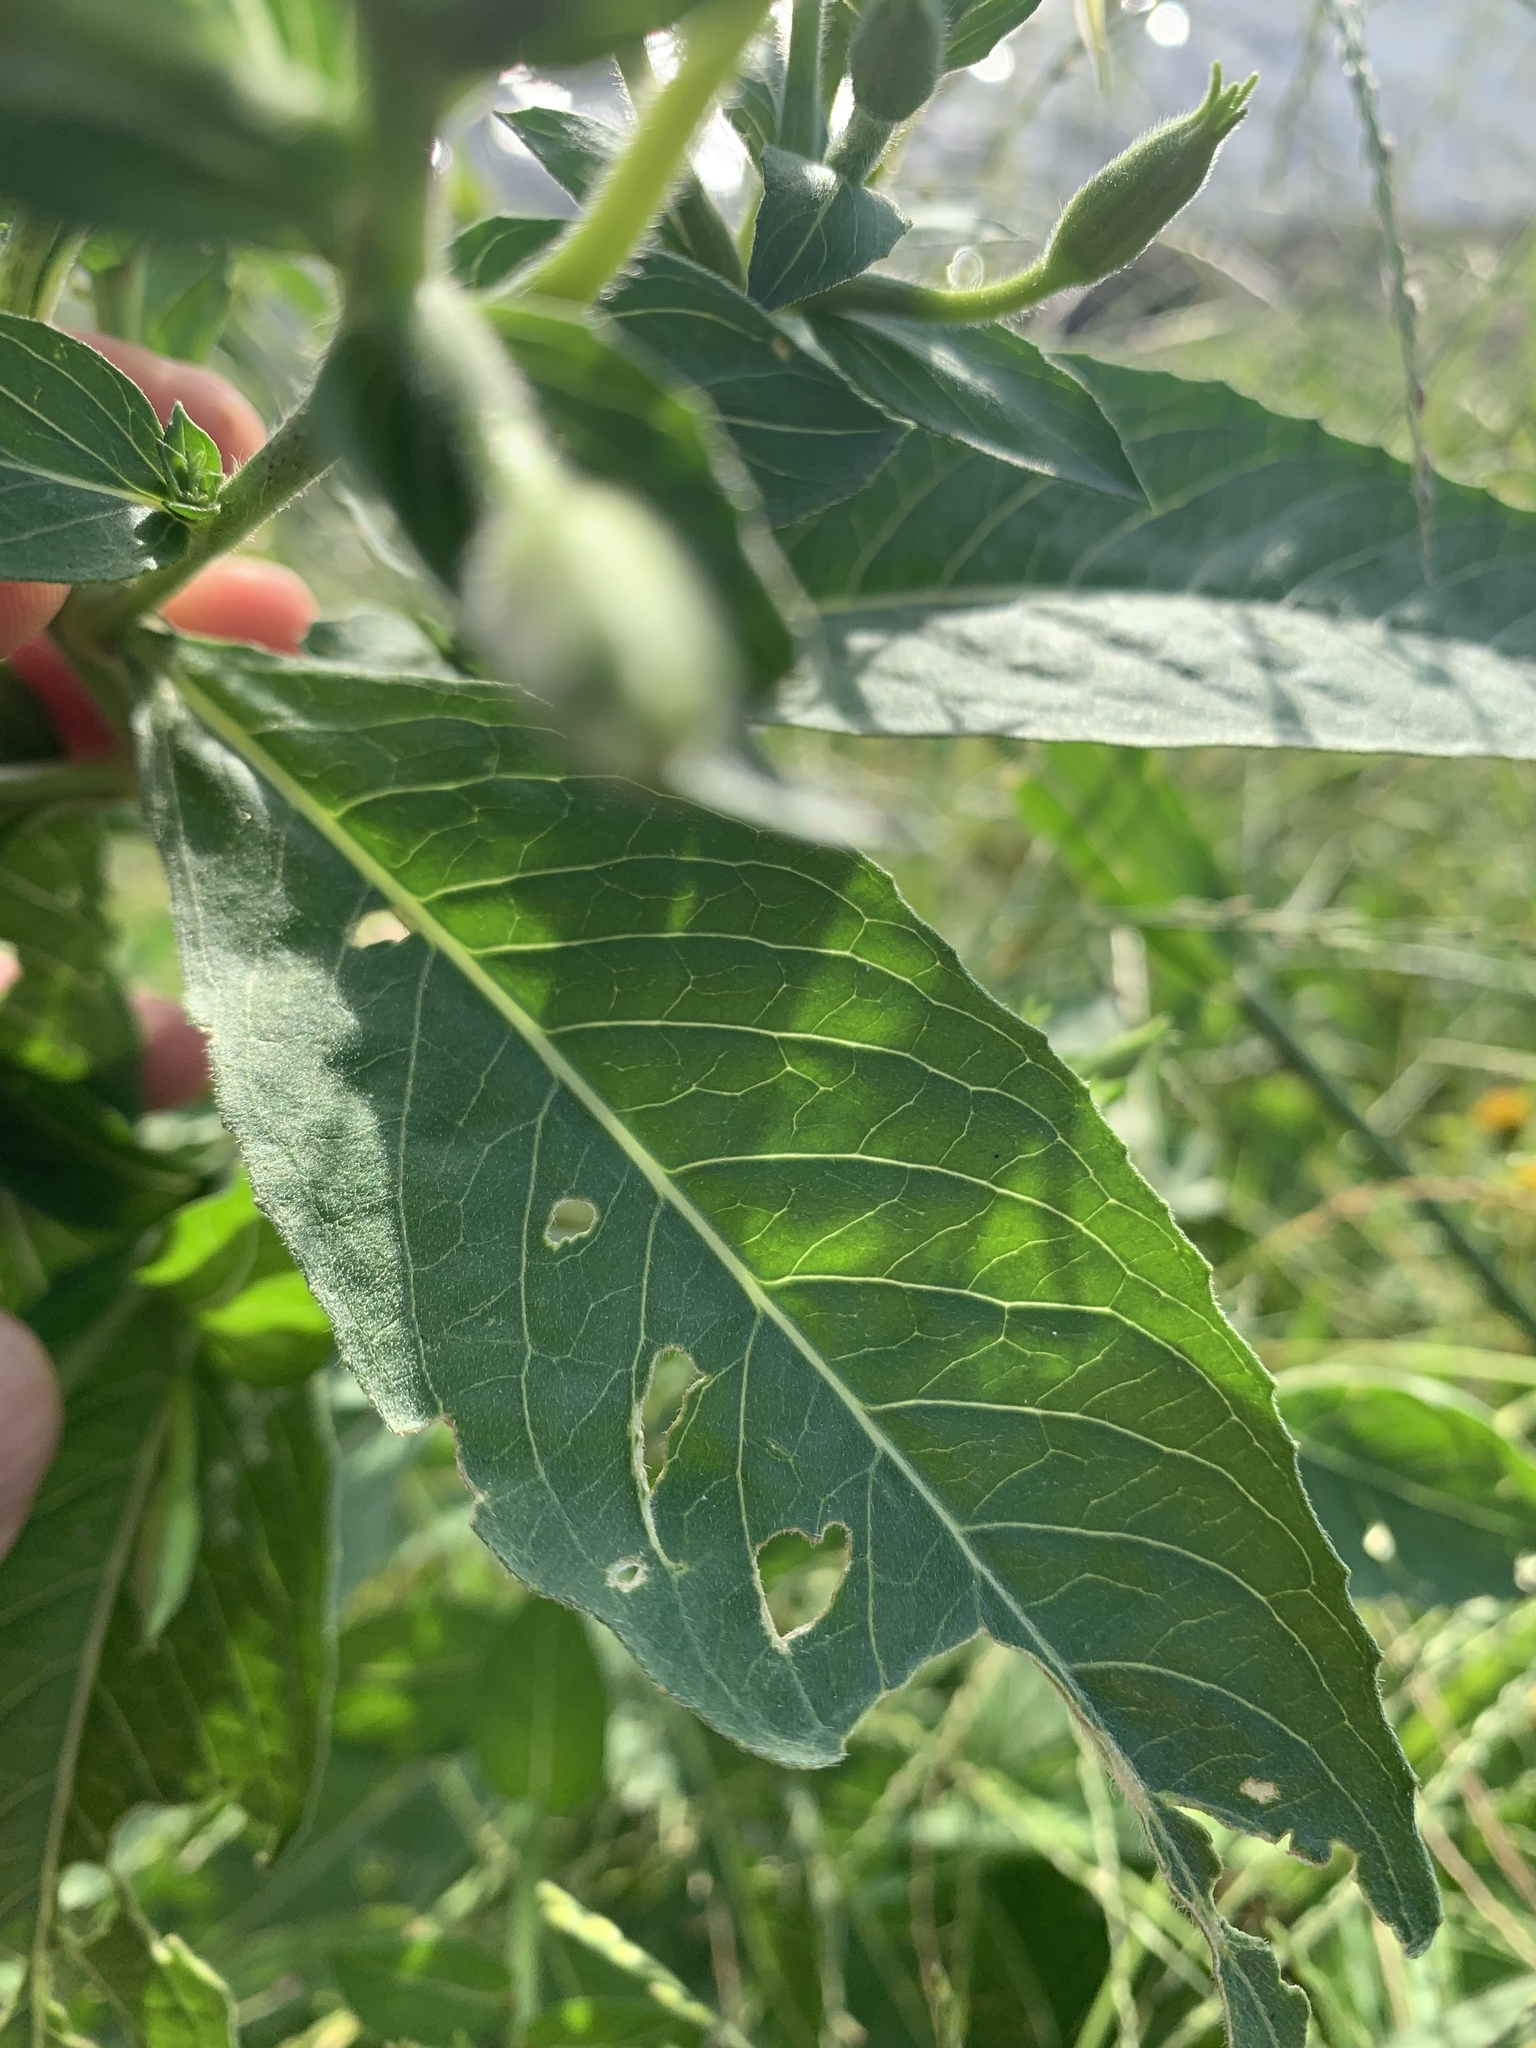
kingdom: Plantae
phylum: Tracheophyta
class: Magnoliopsida
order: Myrtales
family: Onagraceae
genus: Oenothera
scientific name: Oenothera biennis
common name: Common evening-primrose
